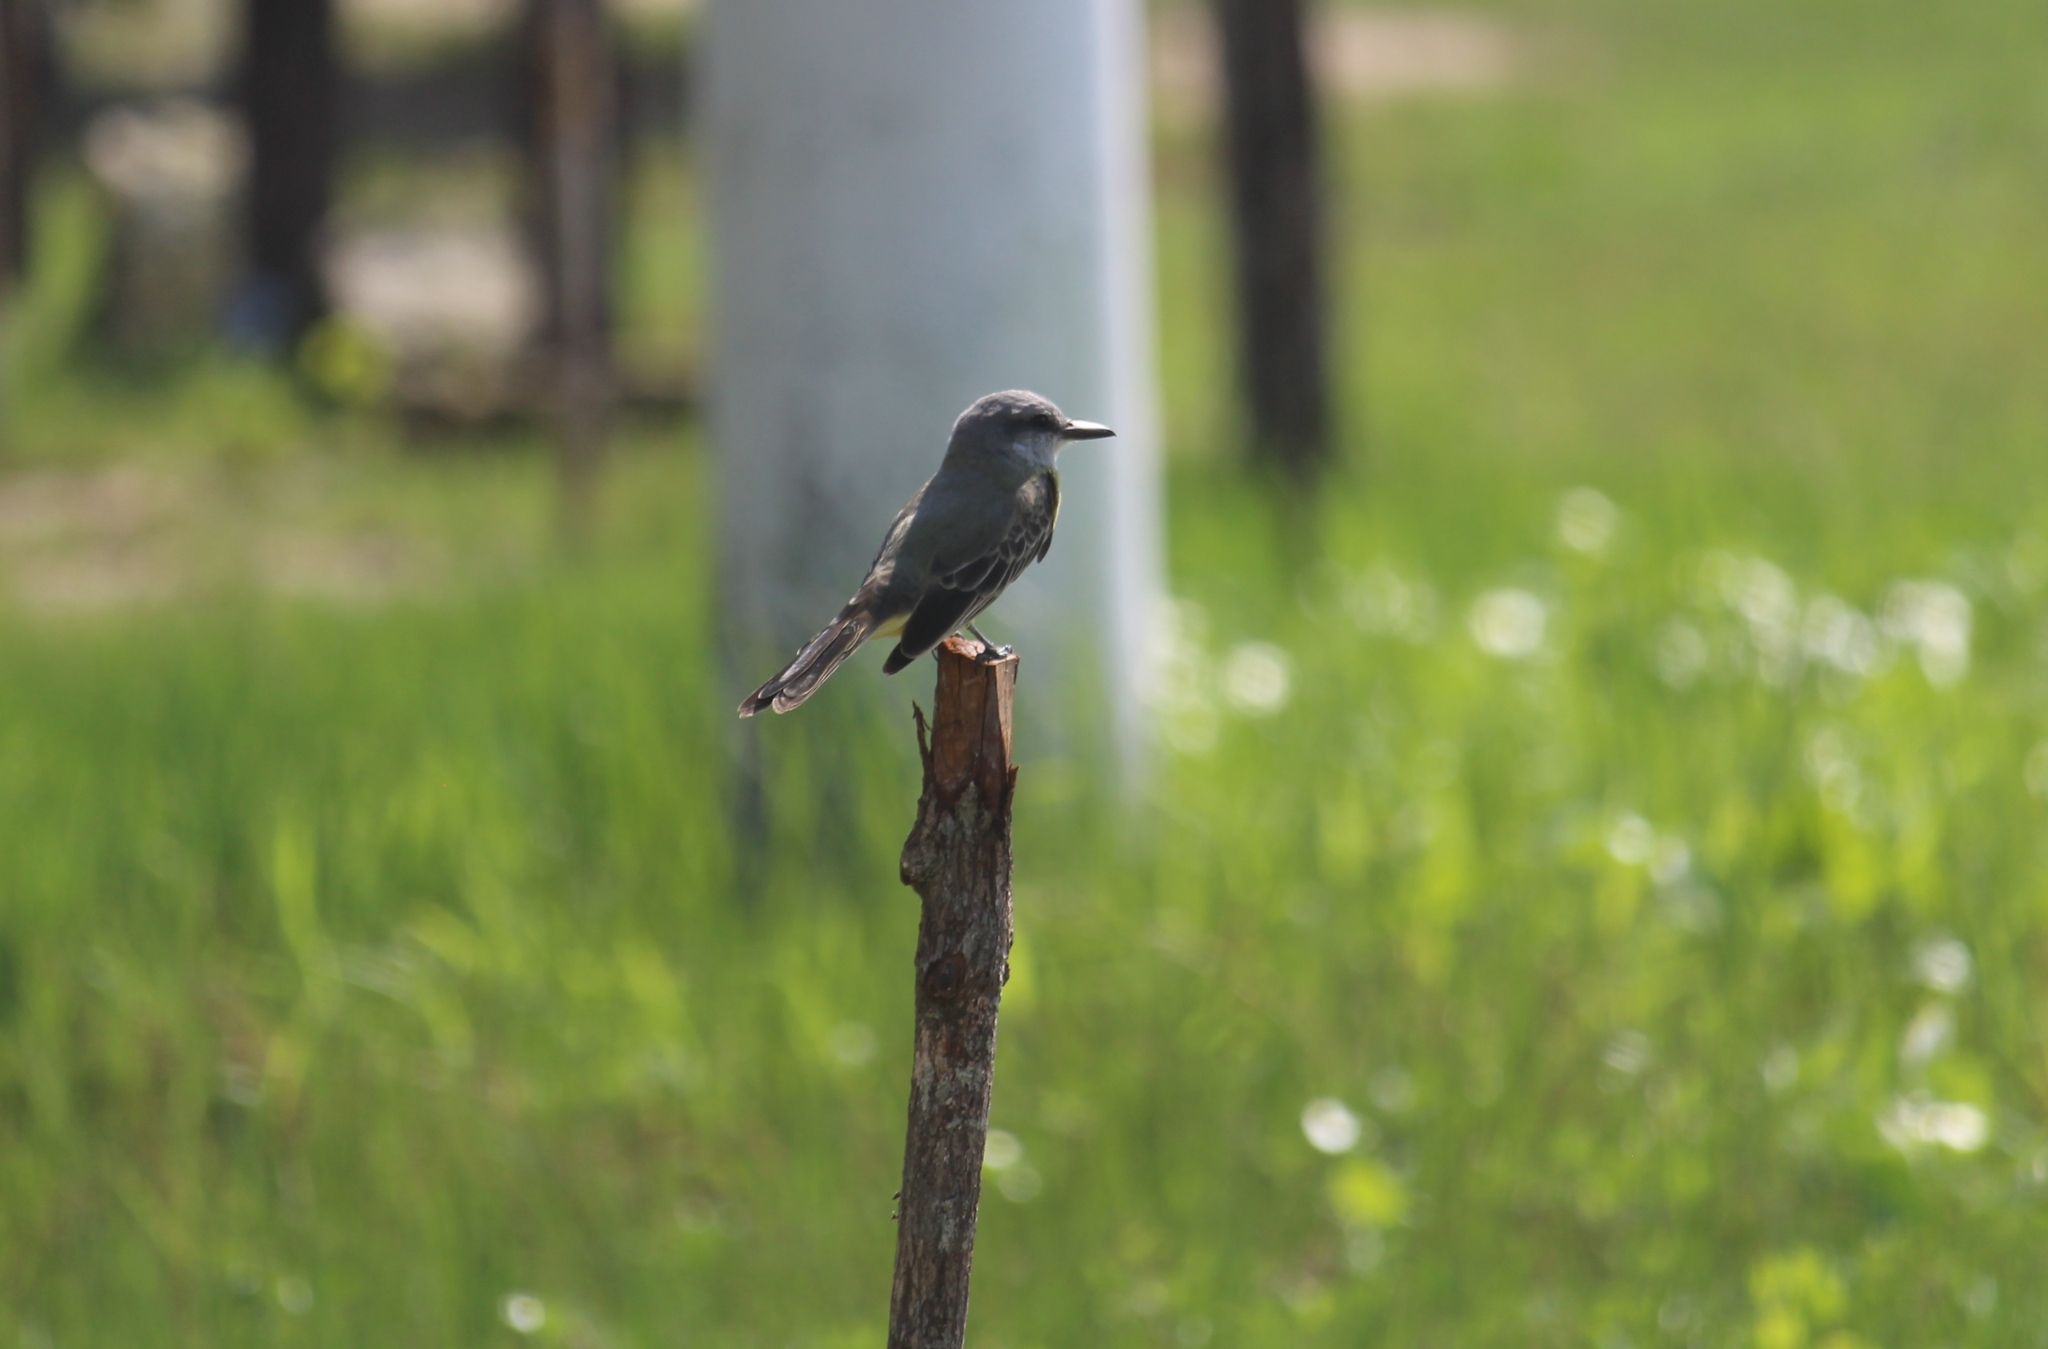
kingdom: Animalia
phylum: Chordata
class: Aves
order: Passeriformes
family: Tyrannidae
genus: Tyrannus
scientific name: Tyrannus
